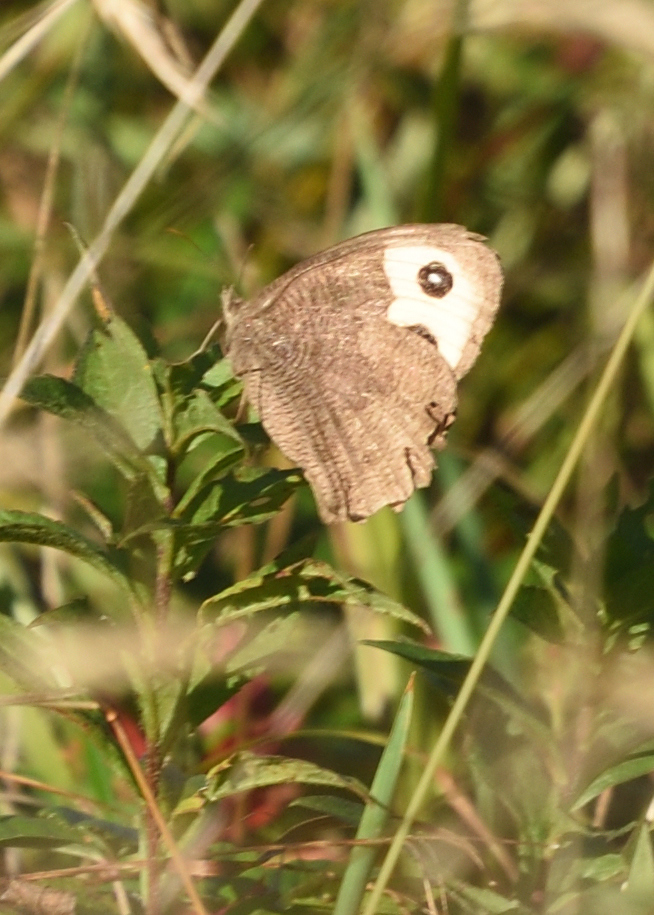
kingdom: Animalia
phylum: Arthropoda
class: Insecta
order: Lepidoptera
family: Nymphalidae
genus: Cercyonis
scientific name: Cercyonis pegala
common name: Common wood-nymph
